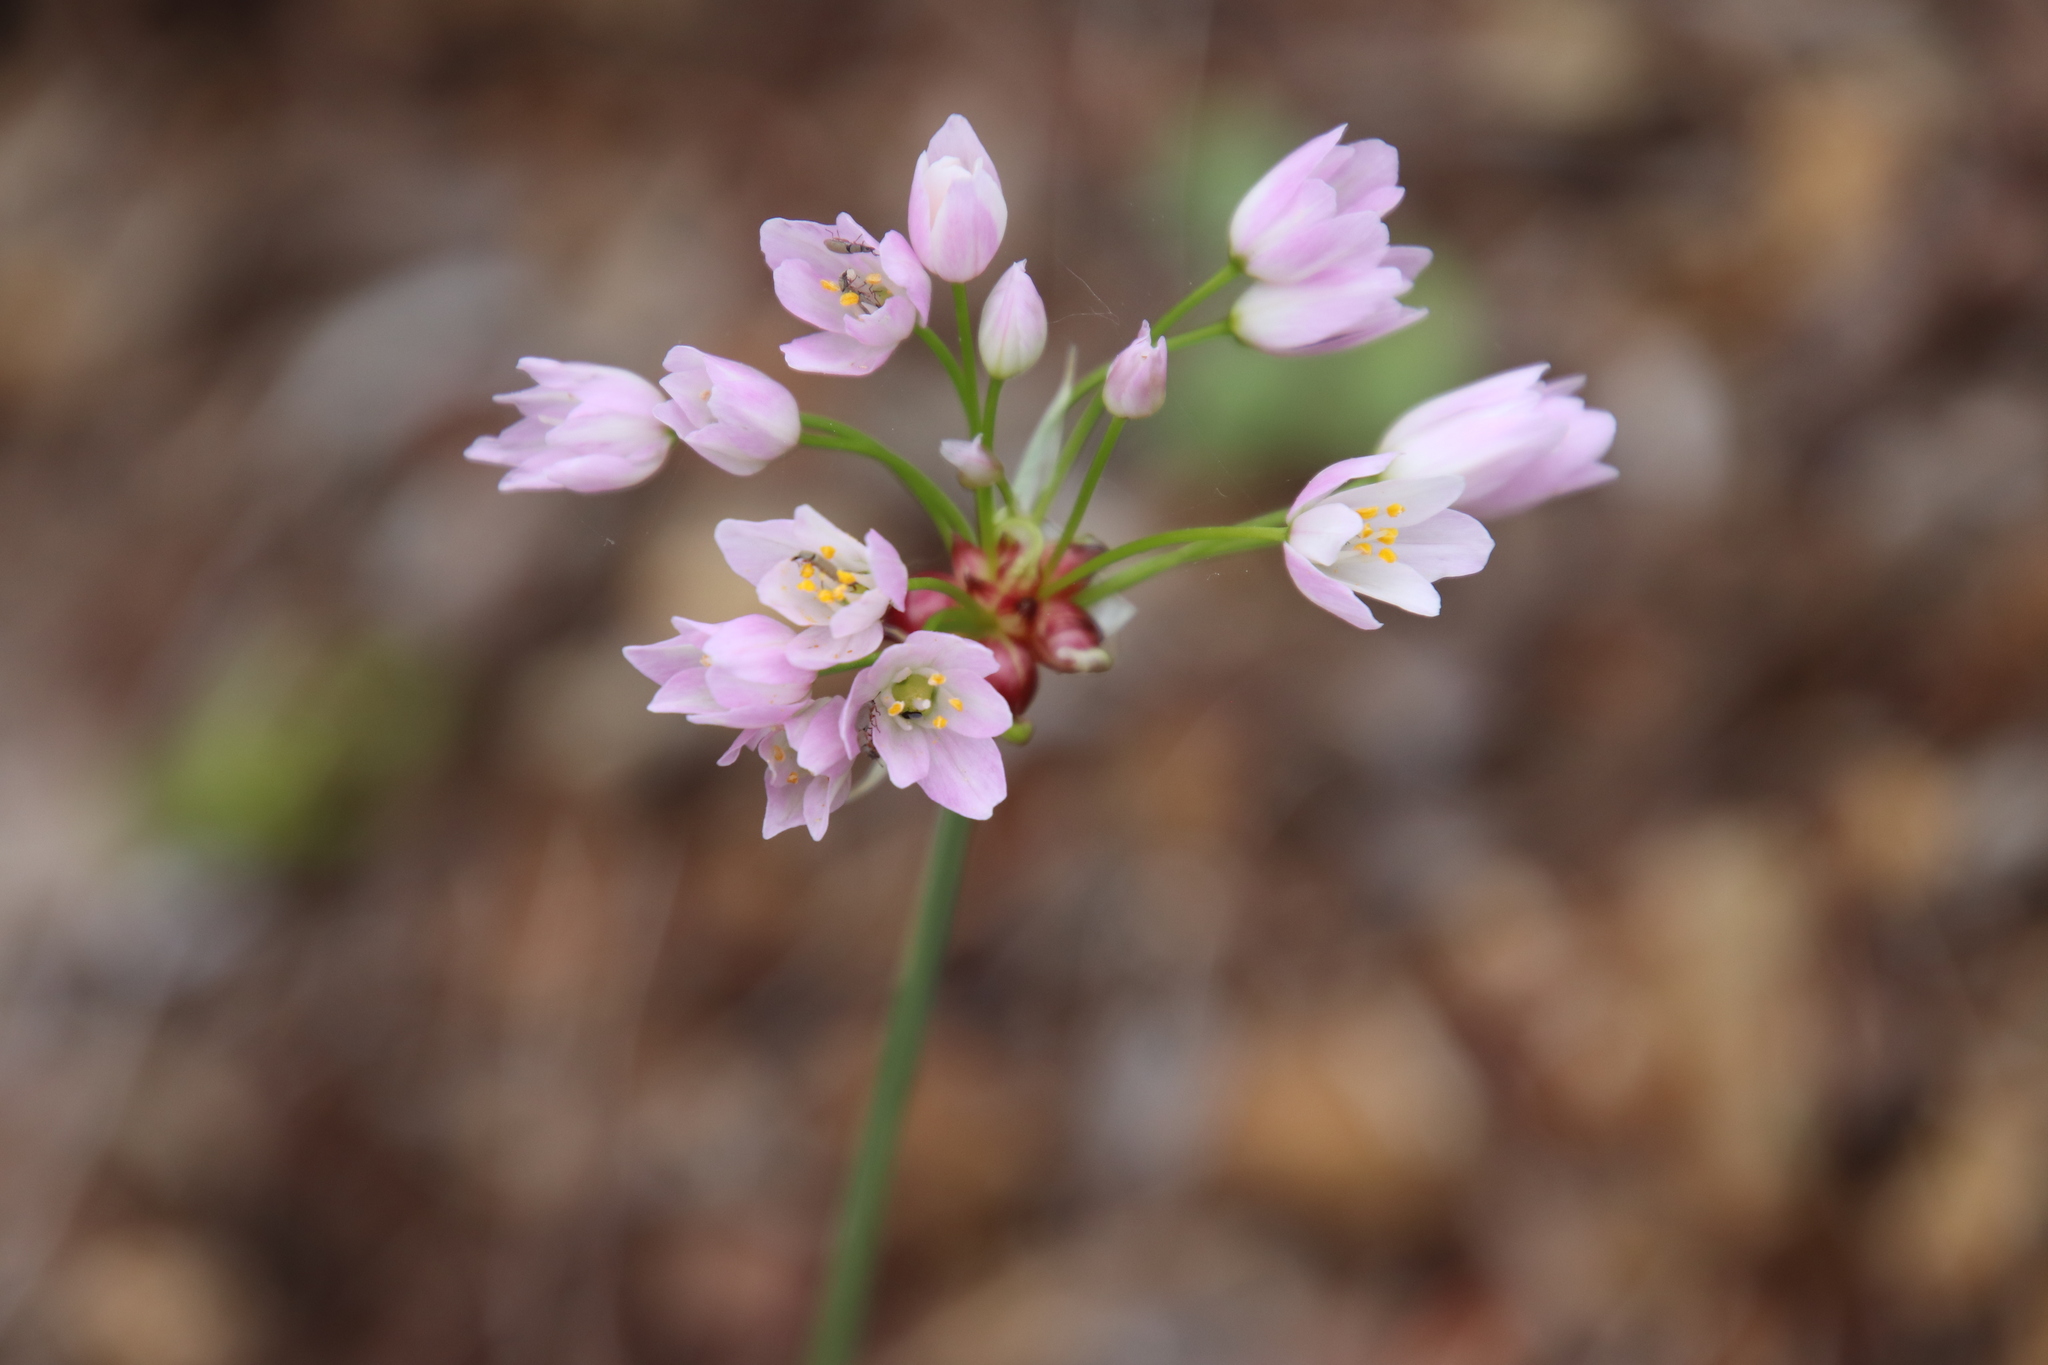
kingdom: Plantae
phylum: Tracheophyta
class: Liliopsida
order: Asparagales
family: Amaryllidaceae
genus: Allium
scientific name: Allium roseum
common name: Rosy garlic
